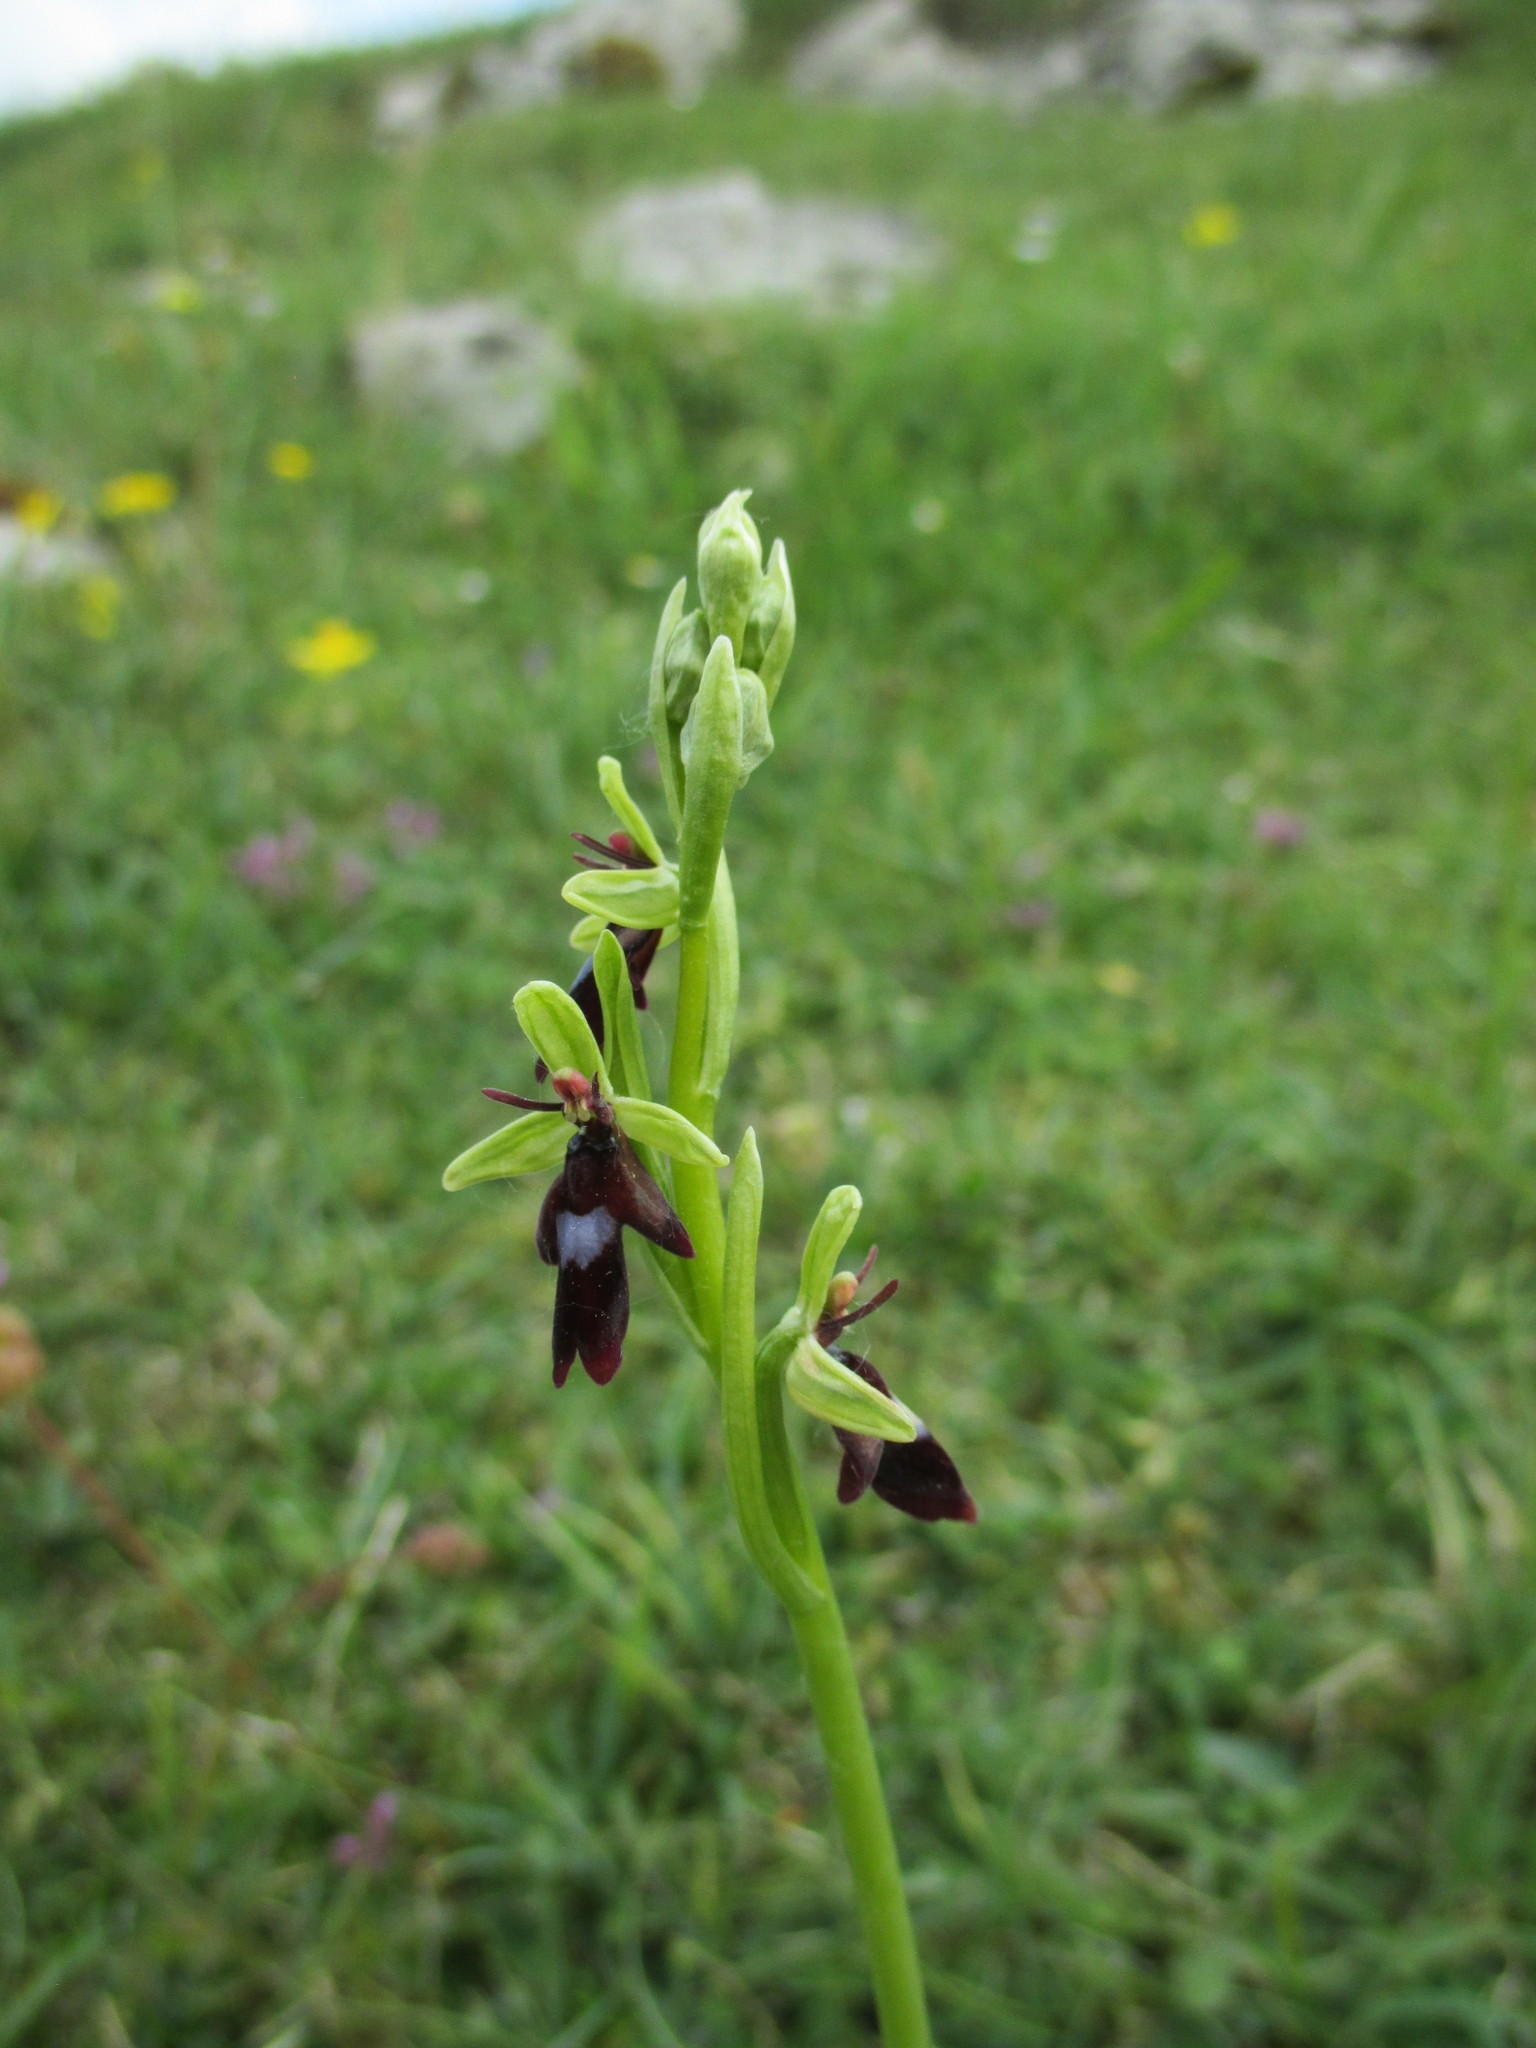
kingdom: Plantae
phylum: Tracheophyta
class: Liliopsida
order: Asparagales
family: Orchidaceae
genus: Ophrys
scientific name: Ophrys insectifera
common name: Fly orchid
